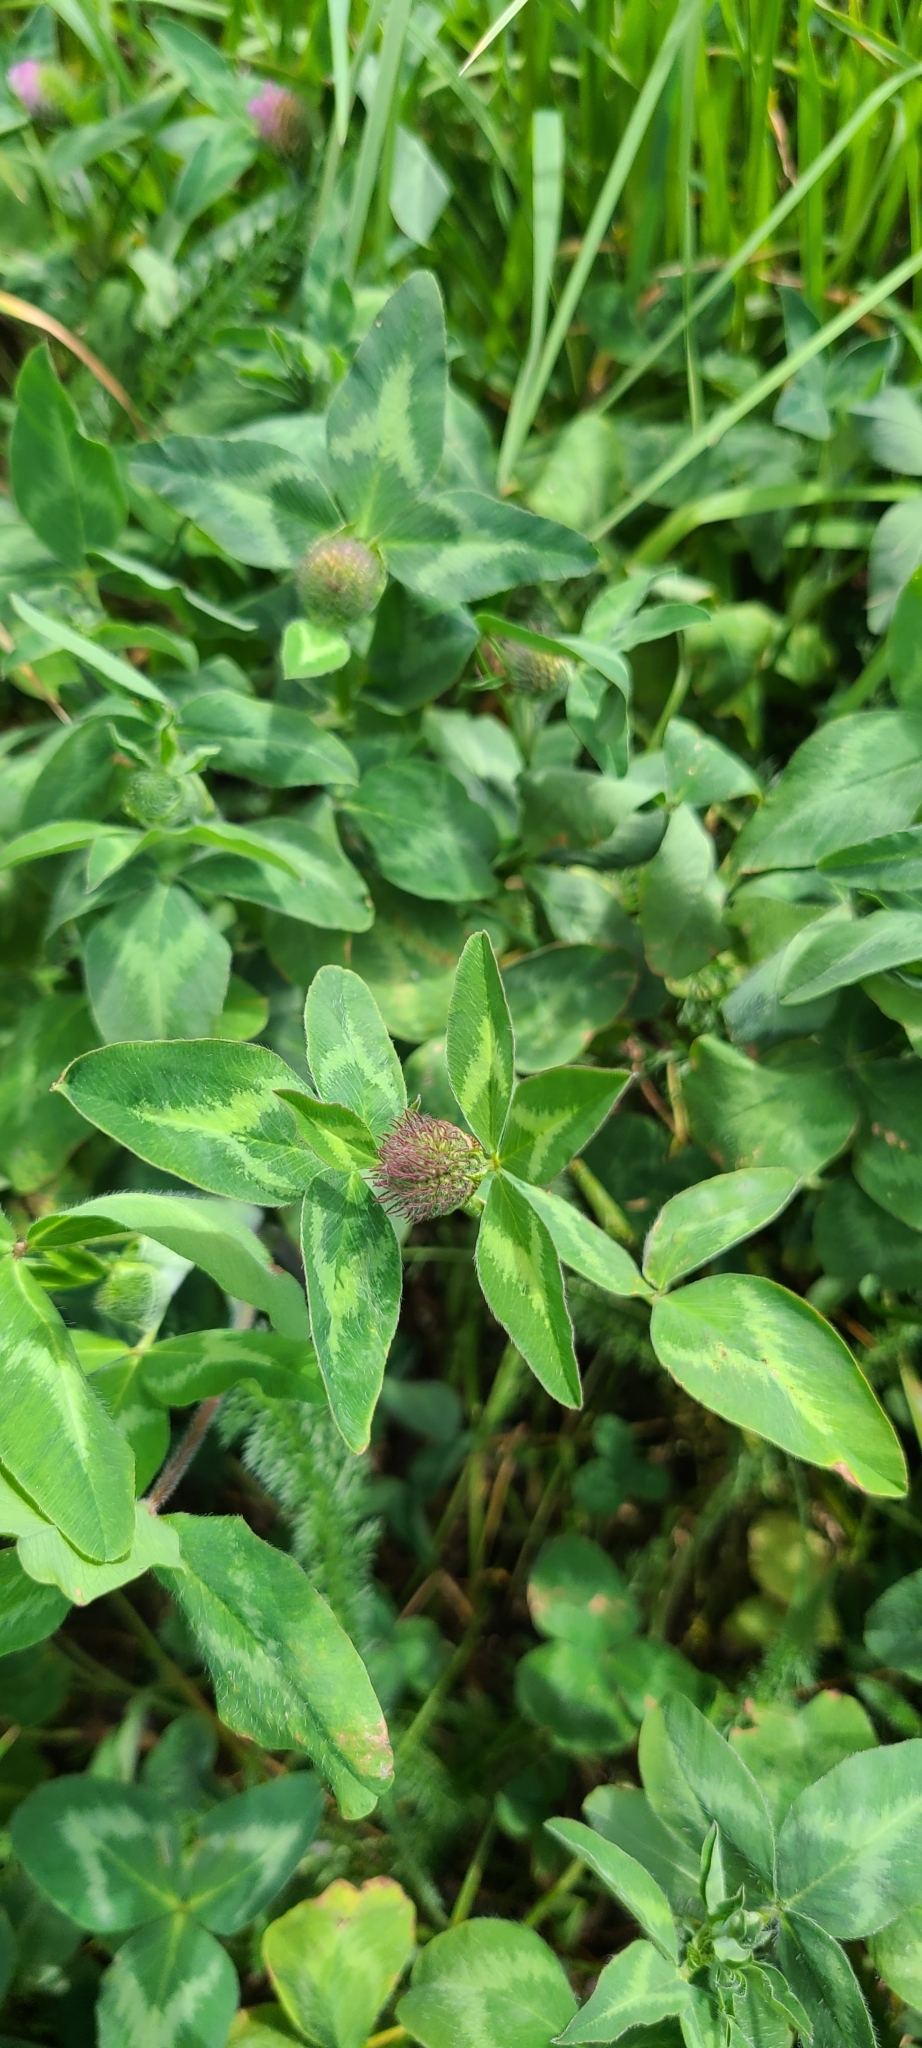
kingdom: Plantae
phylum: Tracheophyta
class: Magnoliopsida
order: Fabales
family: Fabaceae
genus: Trifolium
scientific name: Trifolium pratense
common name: Red clover
